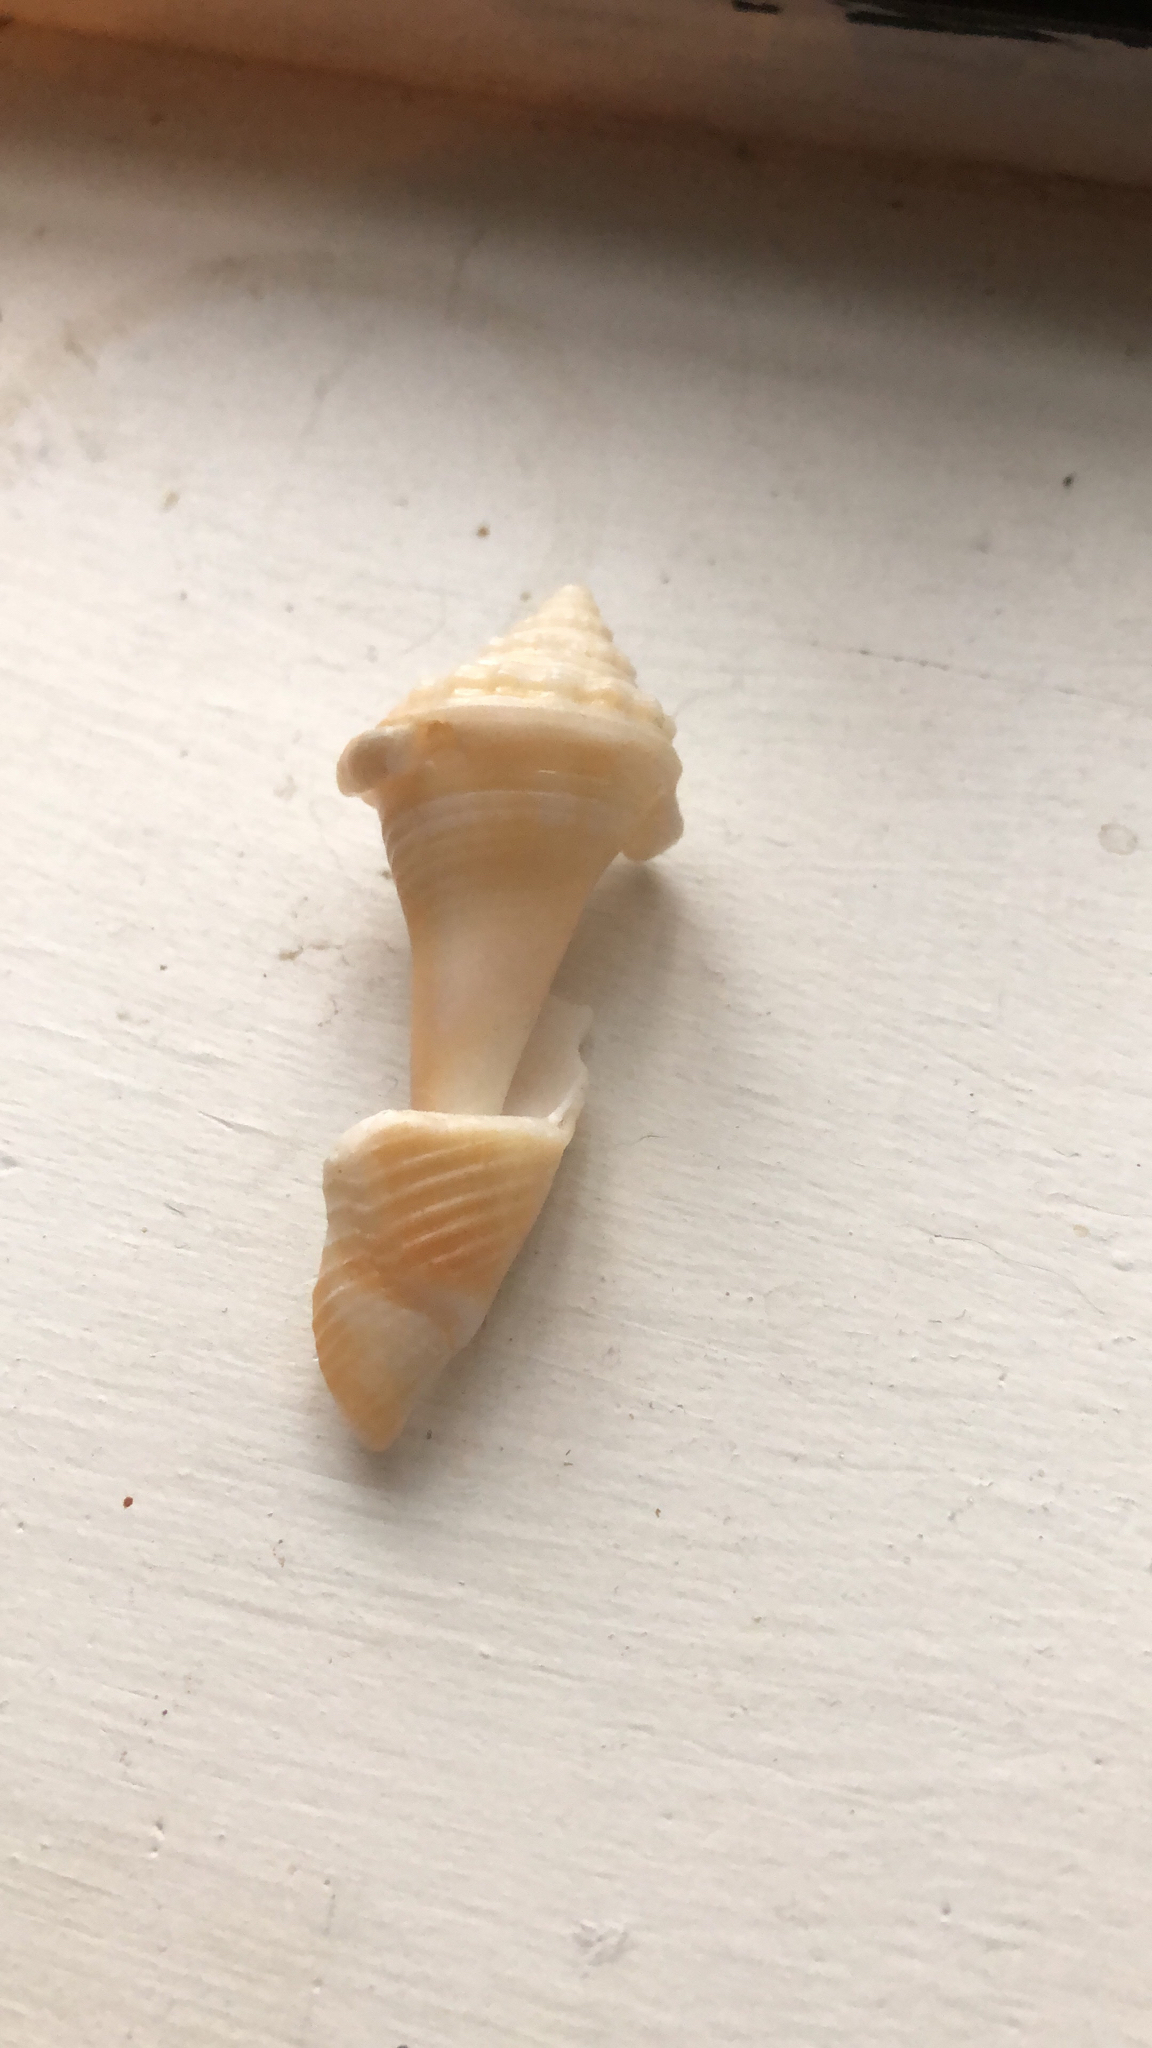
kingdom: Animalia
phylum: Mollusca
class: Gastropoda
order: Littorinimorpha
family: Strombidae
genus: Strombus
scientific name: Strombus alatus
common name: Florida fighting conch
